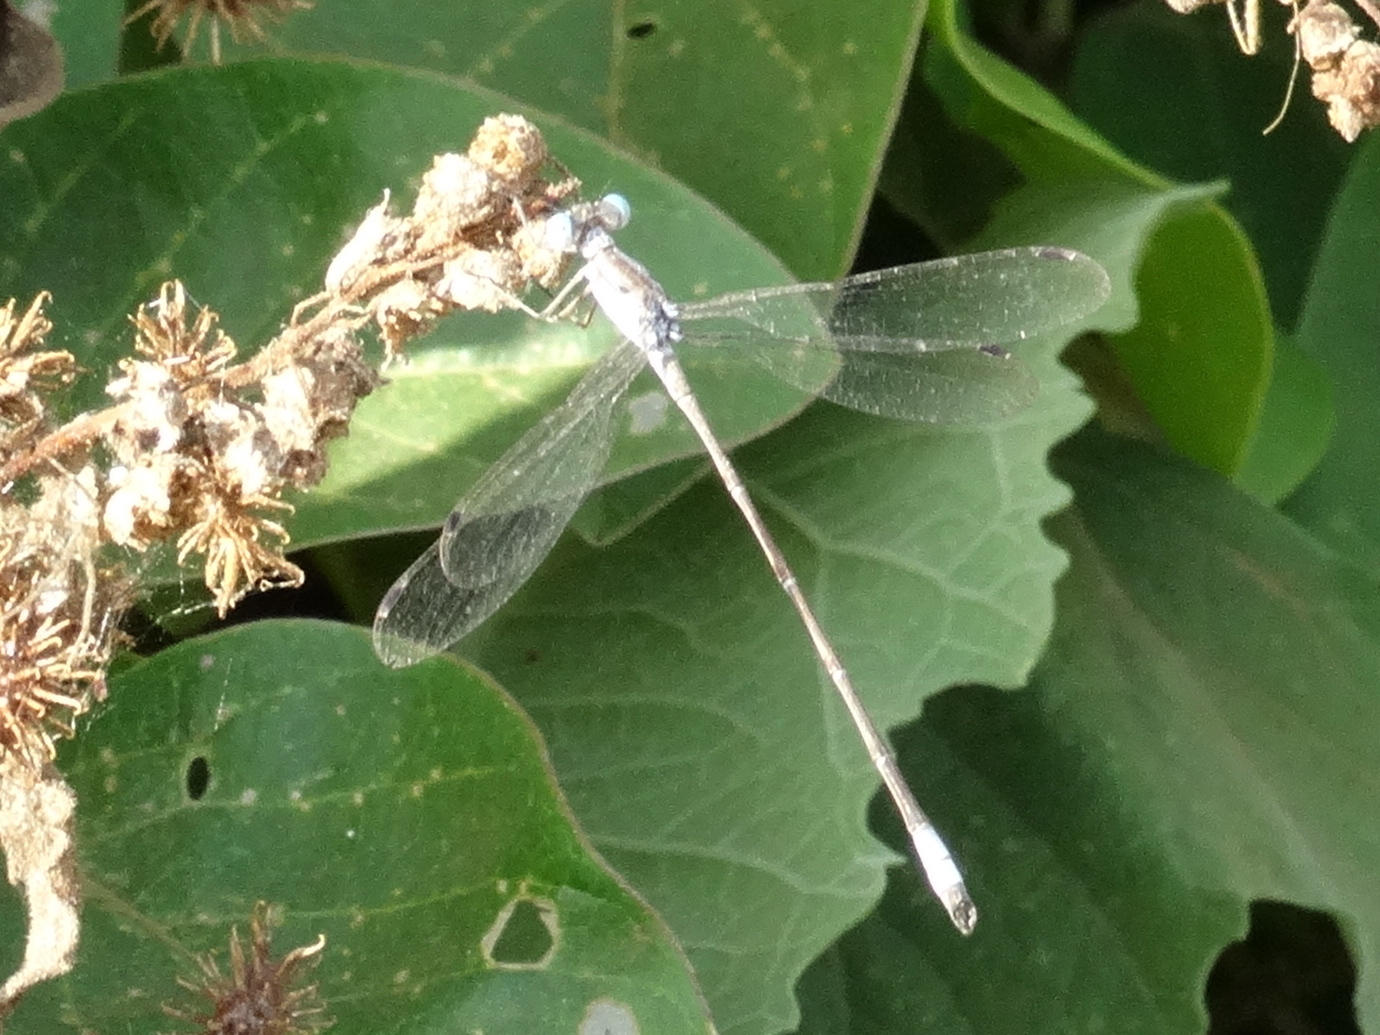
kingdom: Animalia
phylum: Arthropoda
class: Insecta
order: Odonata
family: Lestidae
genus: Lestes
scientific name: Lestes sigma
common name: Chalky spreadwing
